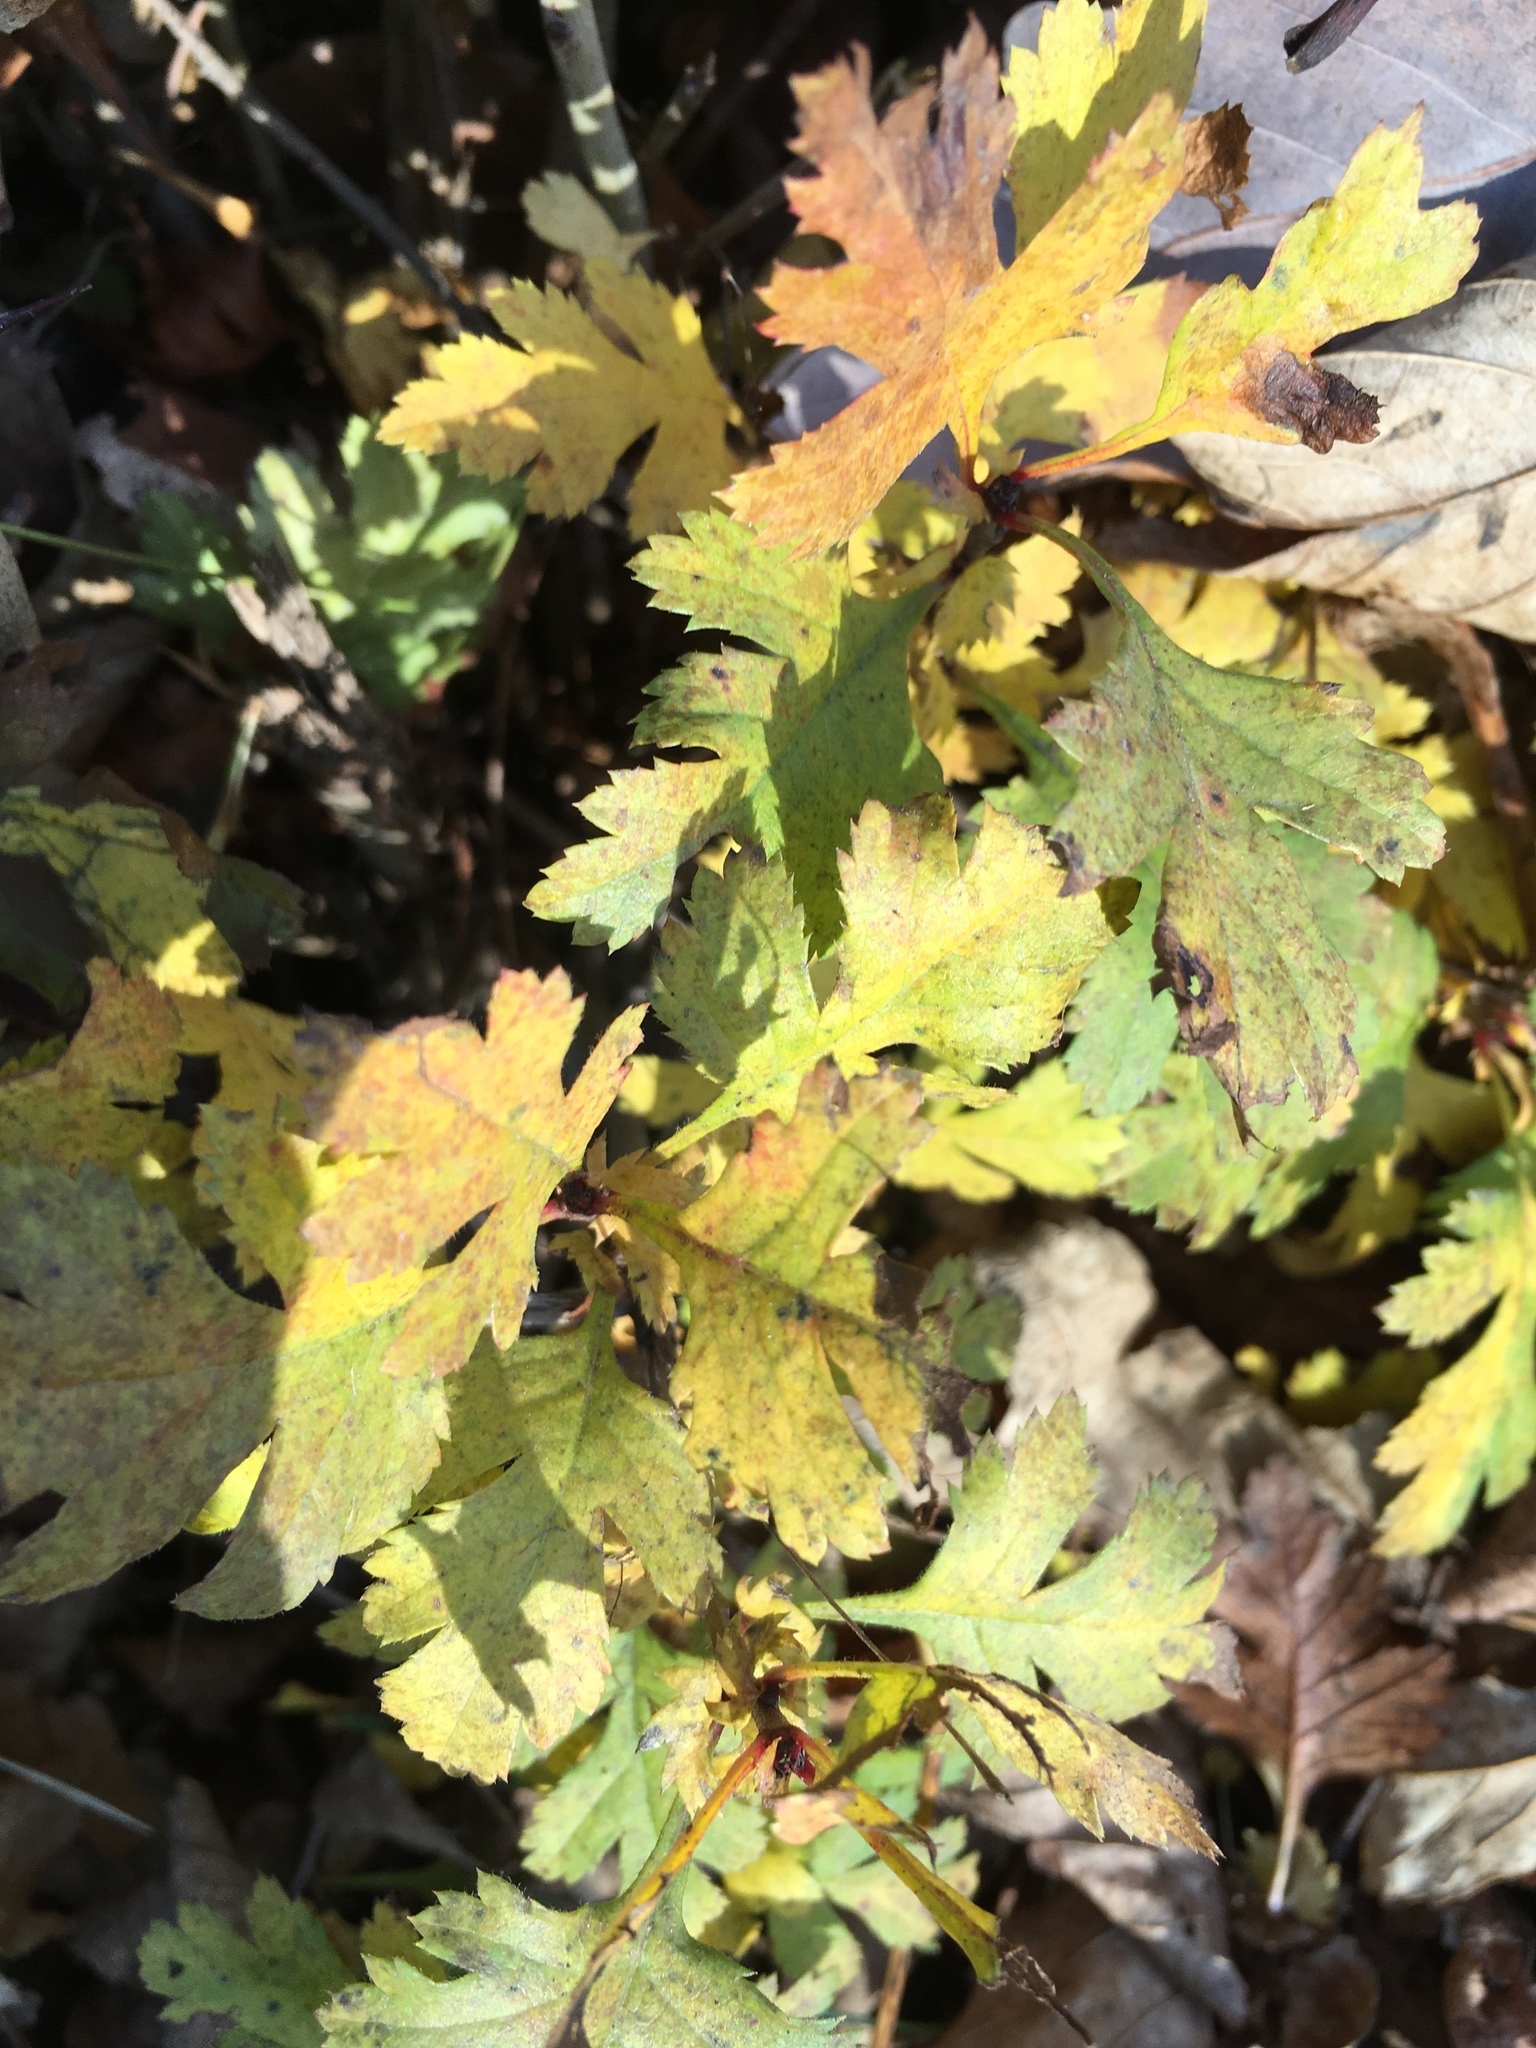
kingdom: Plantae
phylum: Tracheophyta
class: Magnoliopsida
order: Rosales
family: Rosaceae
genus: Crataegus
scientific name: Crataegus monogyna
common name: Hawthorn
